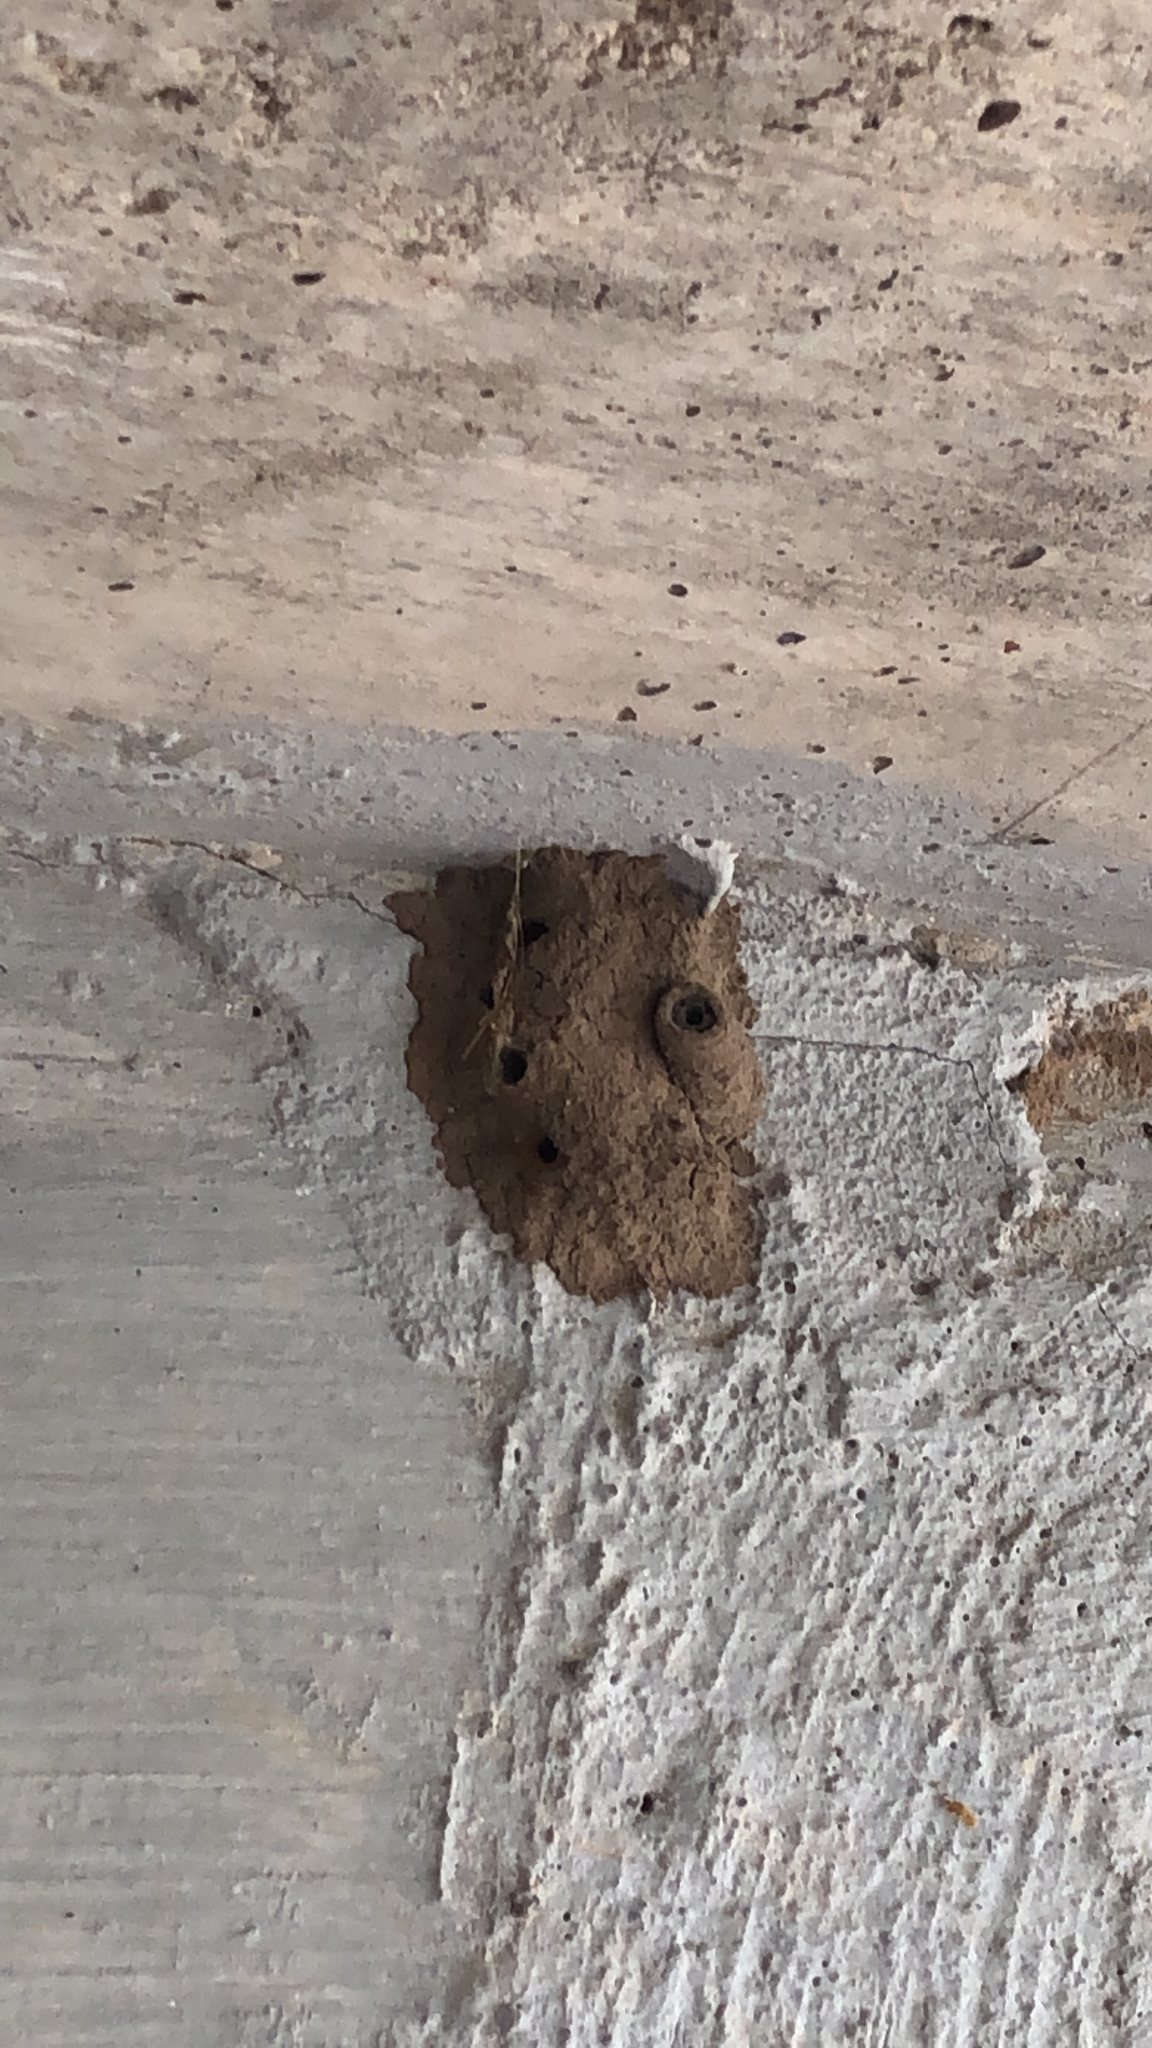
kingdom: Animalia
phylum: Arthropoda
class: Insecta
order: Hymenoptera
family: Sphecidae
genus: Sceliphron
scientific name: Sceliphron caementarium
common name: Mud dauber
